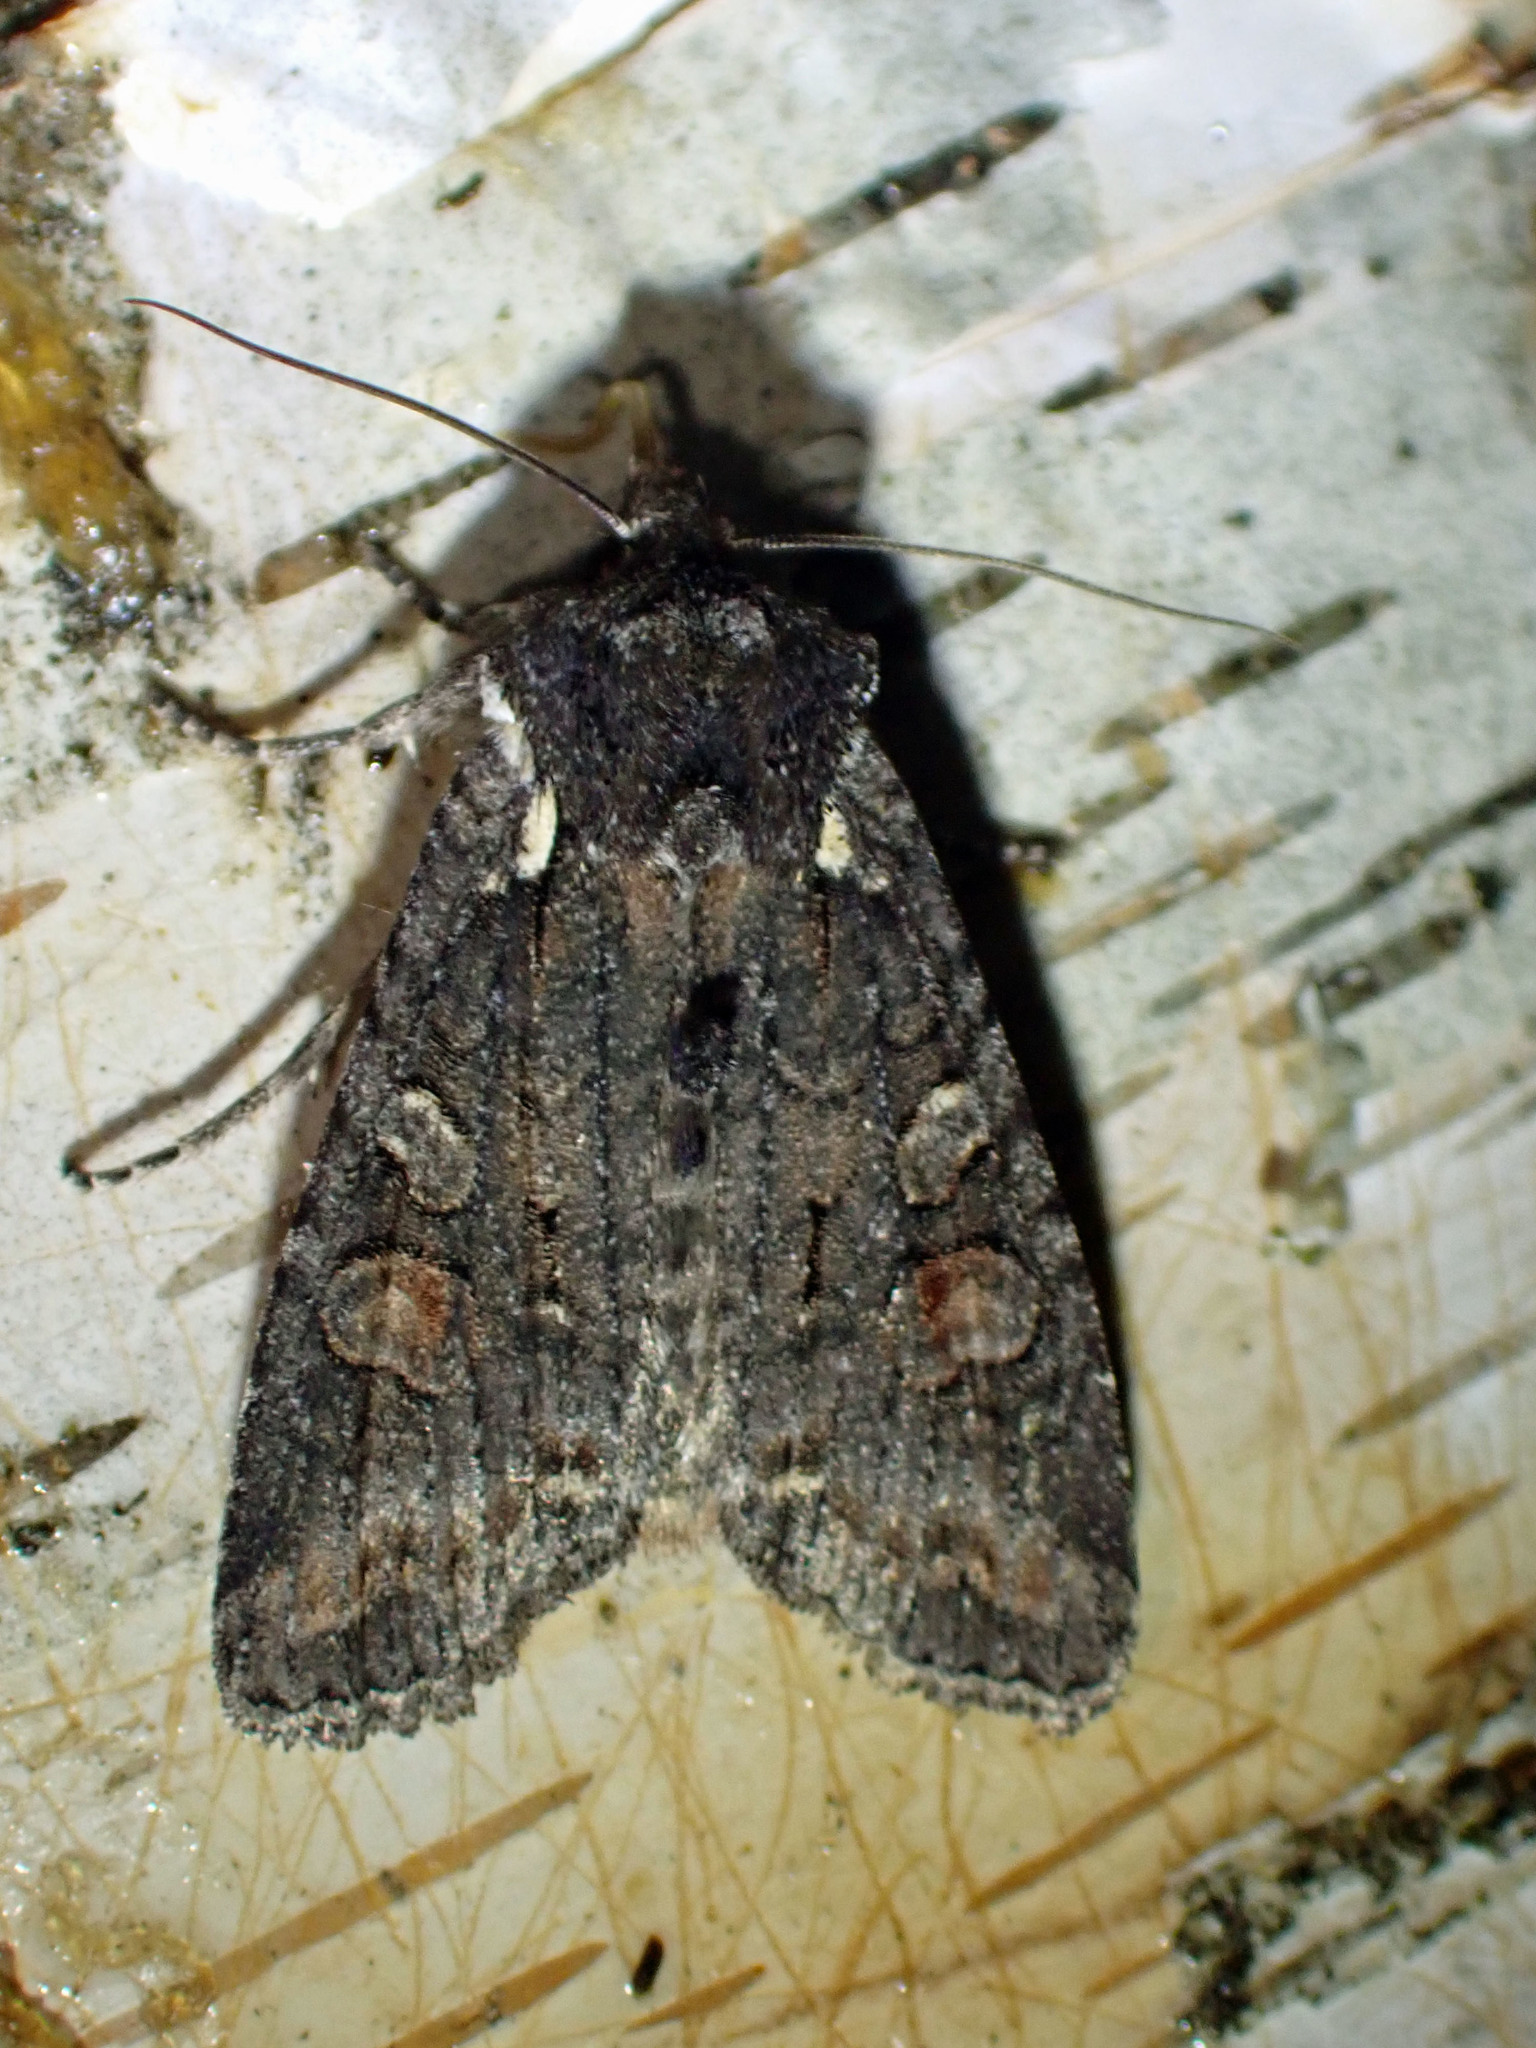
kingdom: Animalia
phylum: Arthropoda
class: Insecta
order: Lepidoptera
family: Noctuidae
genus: Lithophane
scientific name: Lithophane pexata
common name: Plush-naped pinion moth
